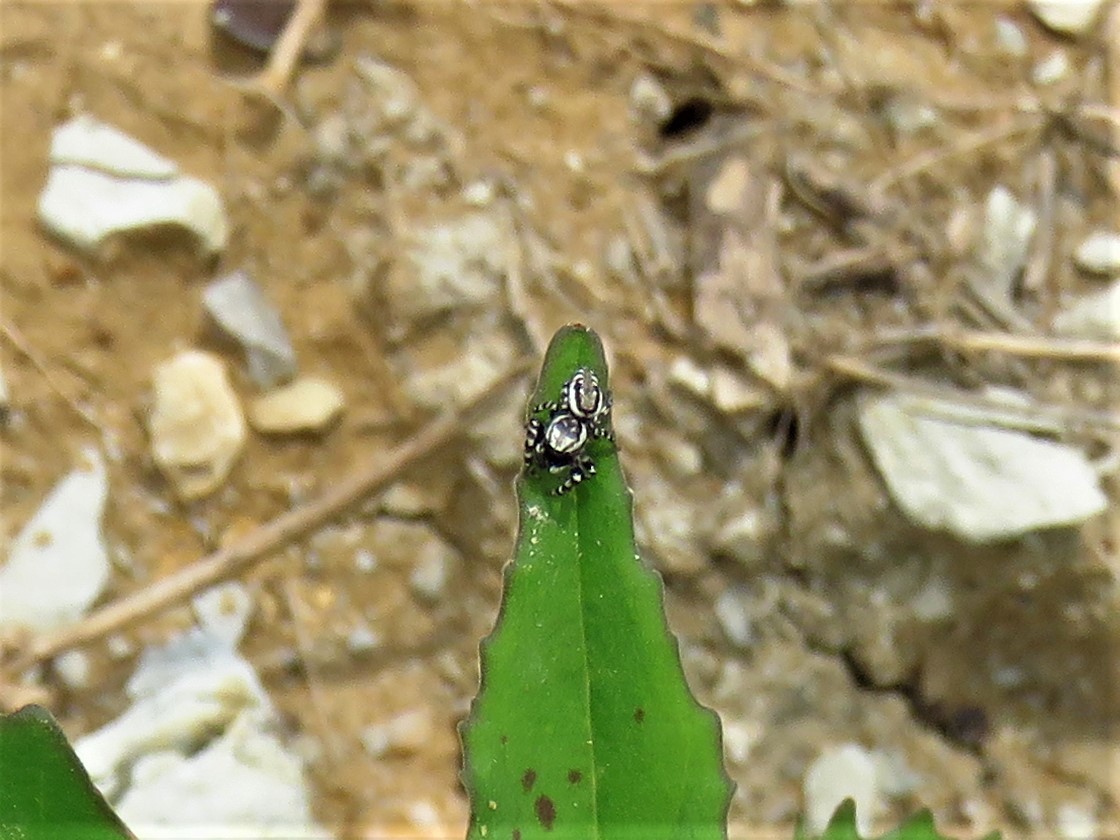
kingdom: Animalia
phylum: Arthropoda
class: Arachnida
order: Araneae
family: Salticidae
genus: Pelegrina
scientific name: Pelegrina galathea
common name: Jumping spiders
